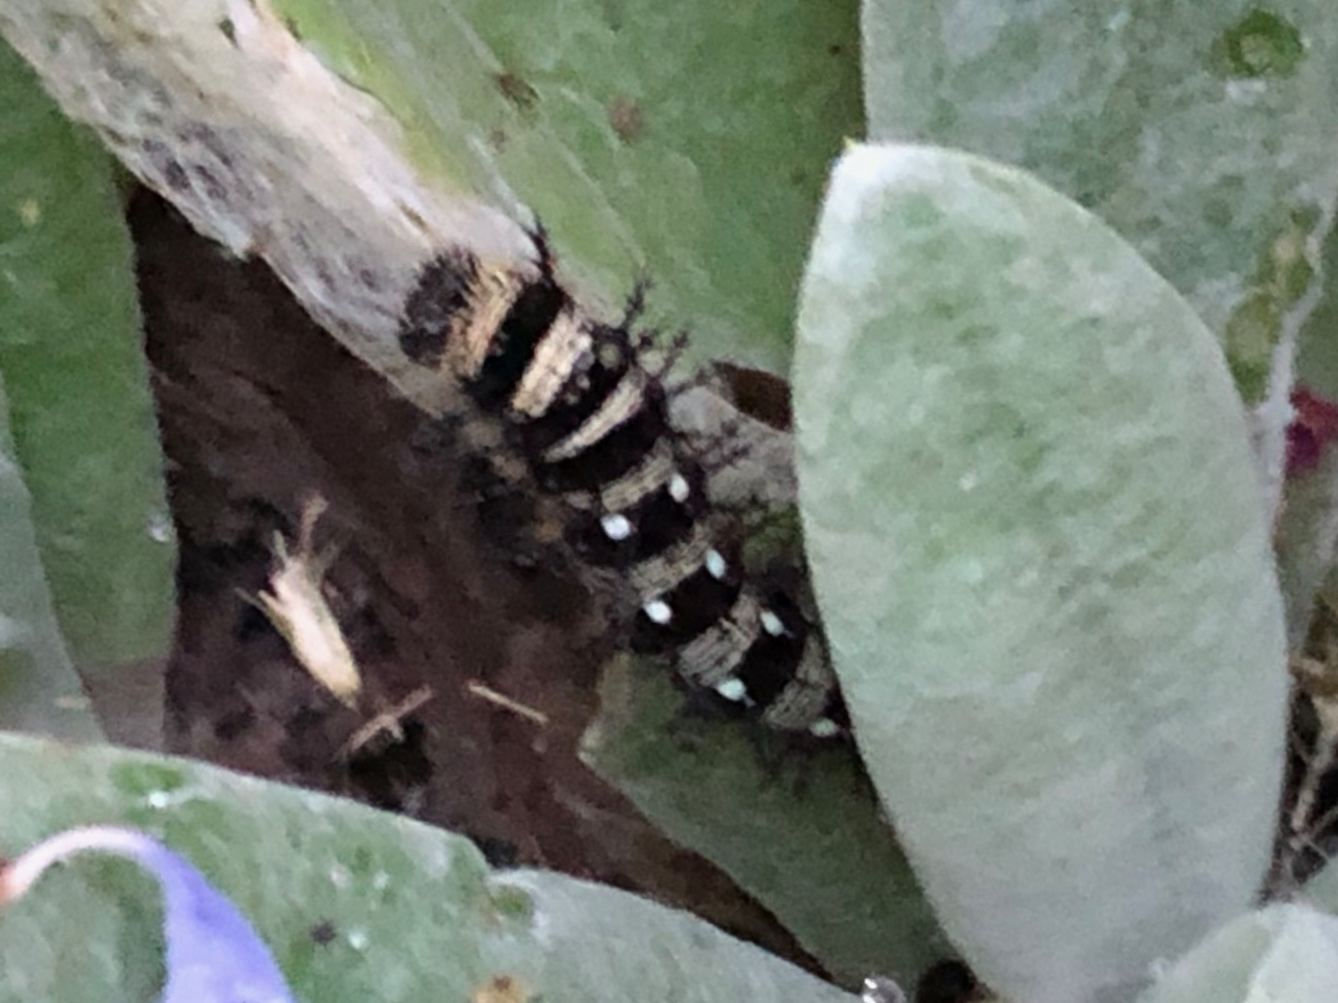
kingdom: Animalia
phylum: Arthropoda
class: Insecta
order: Lepidoptera
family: Nymphalidae
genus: Vanessa
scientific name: Vanessa virginiensis
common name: American lady
